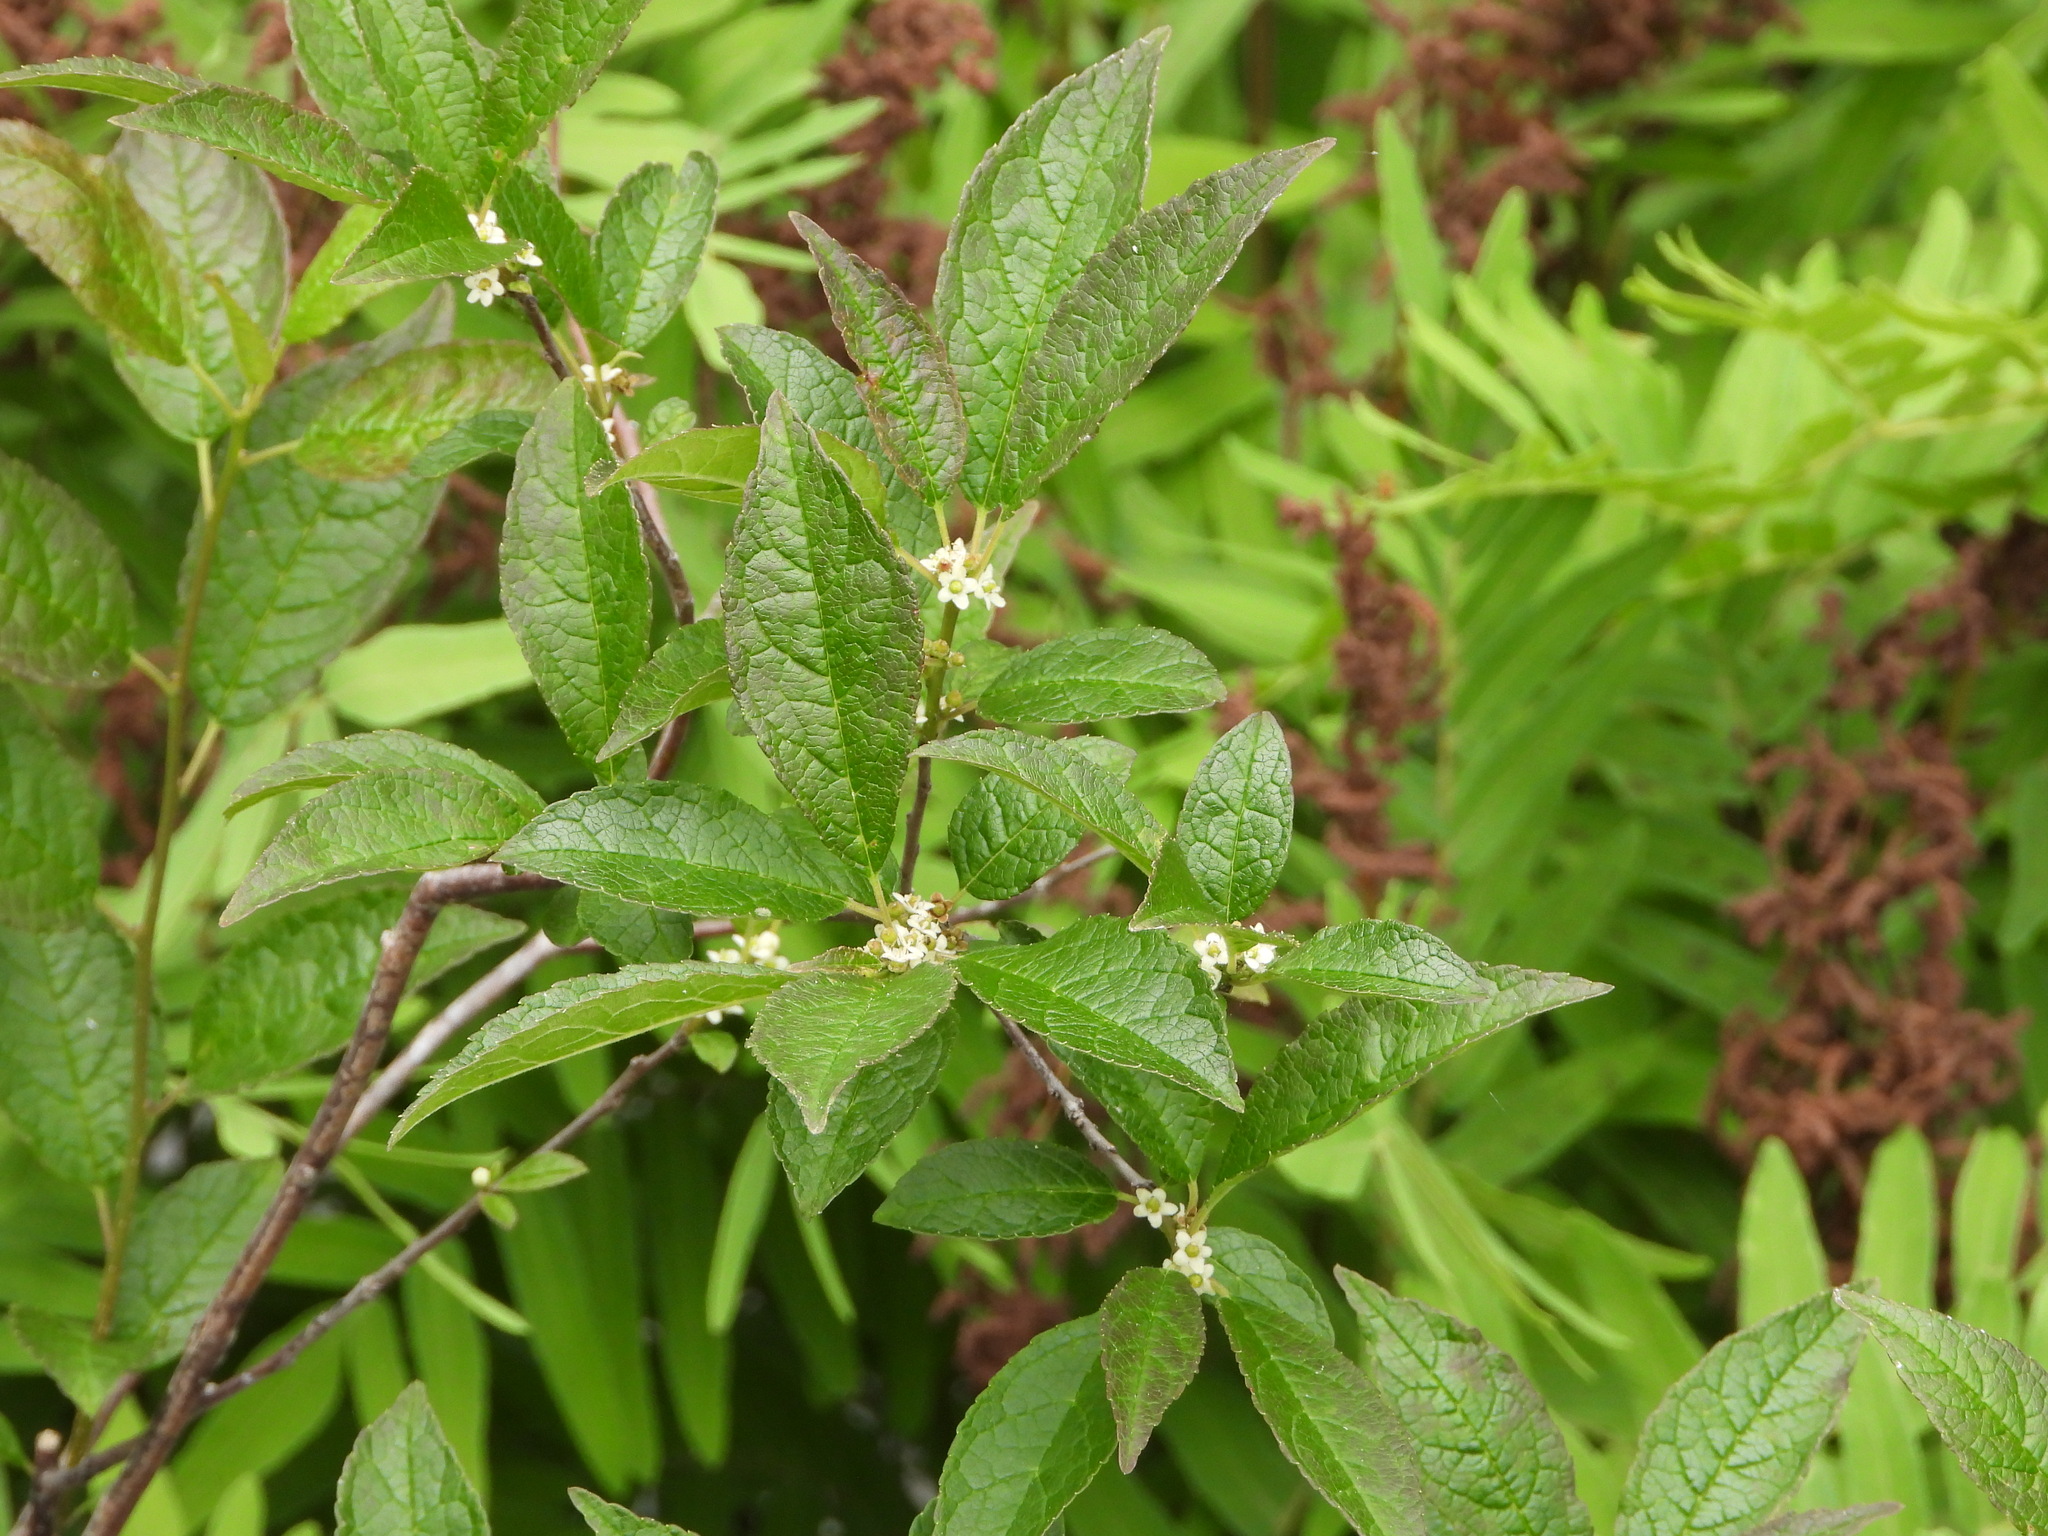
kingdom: Plantae
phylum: Tracheophyta
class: Magnoliopsida
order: Aquifoliales
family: Aquifoliaceae
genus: Ilex
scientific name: Ilex verticillata
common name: Virginia winterberry
